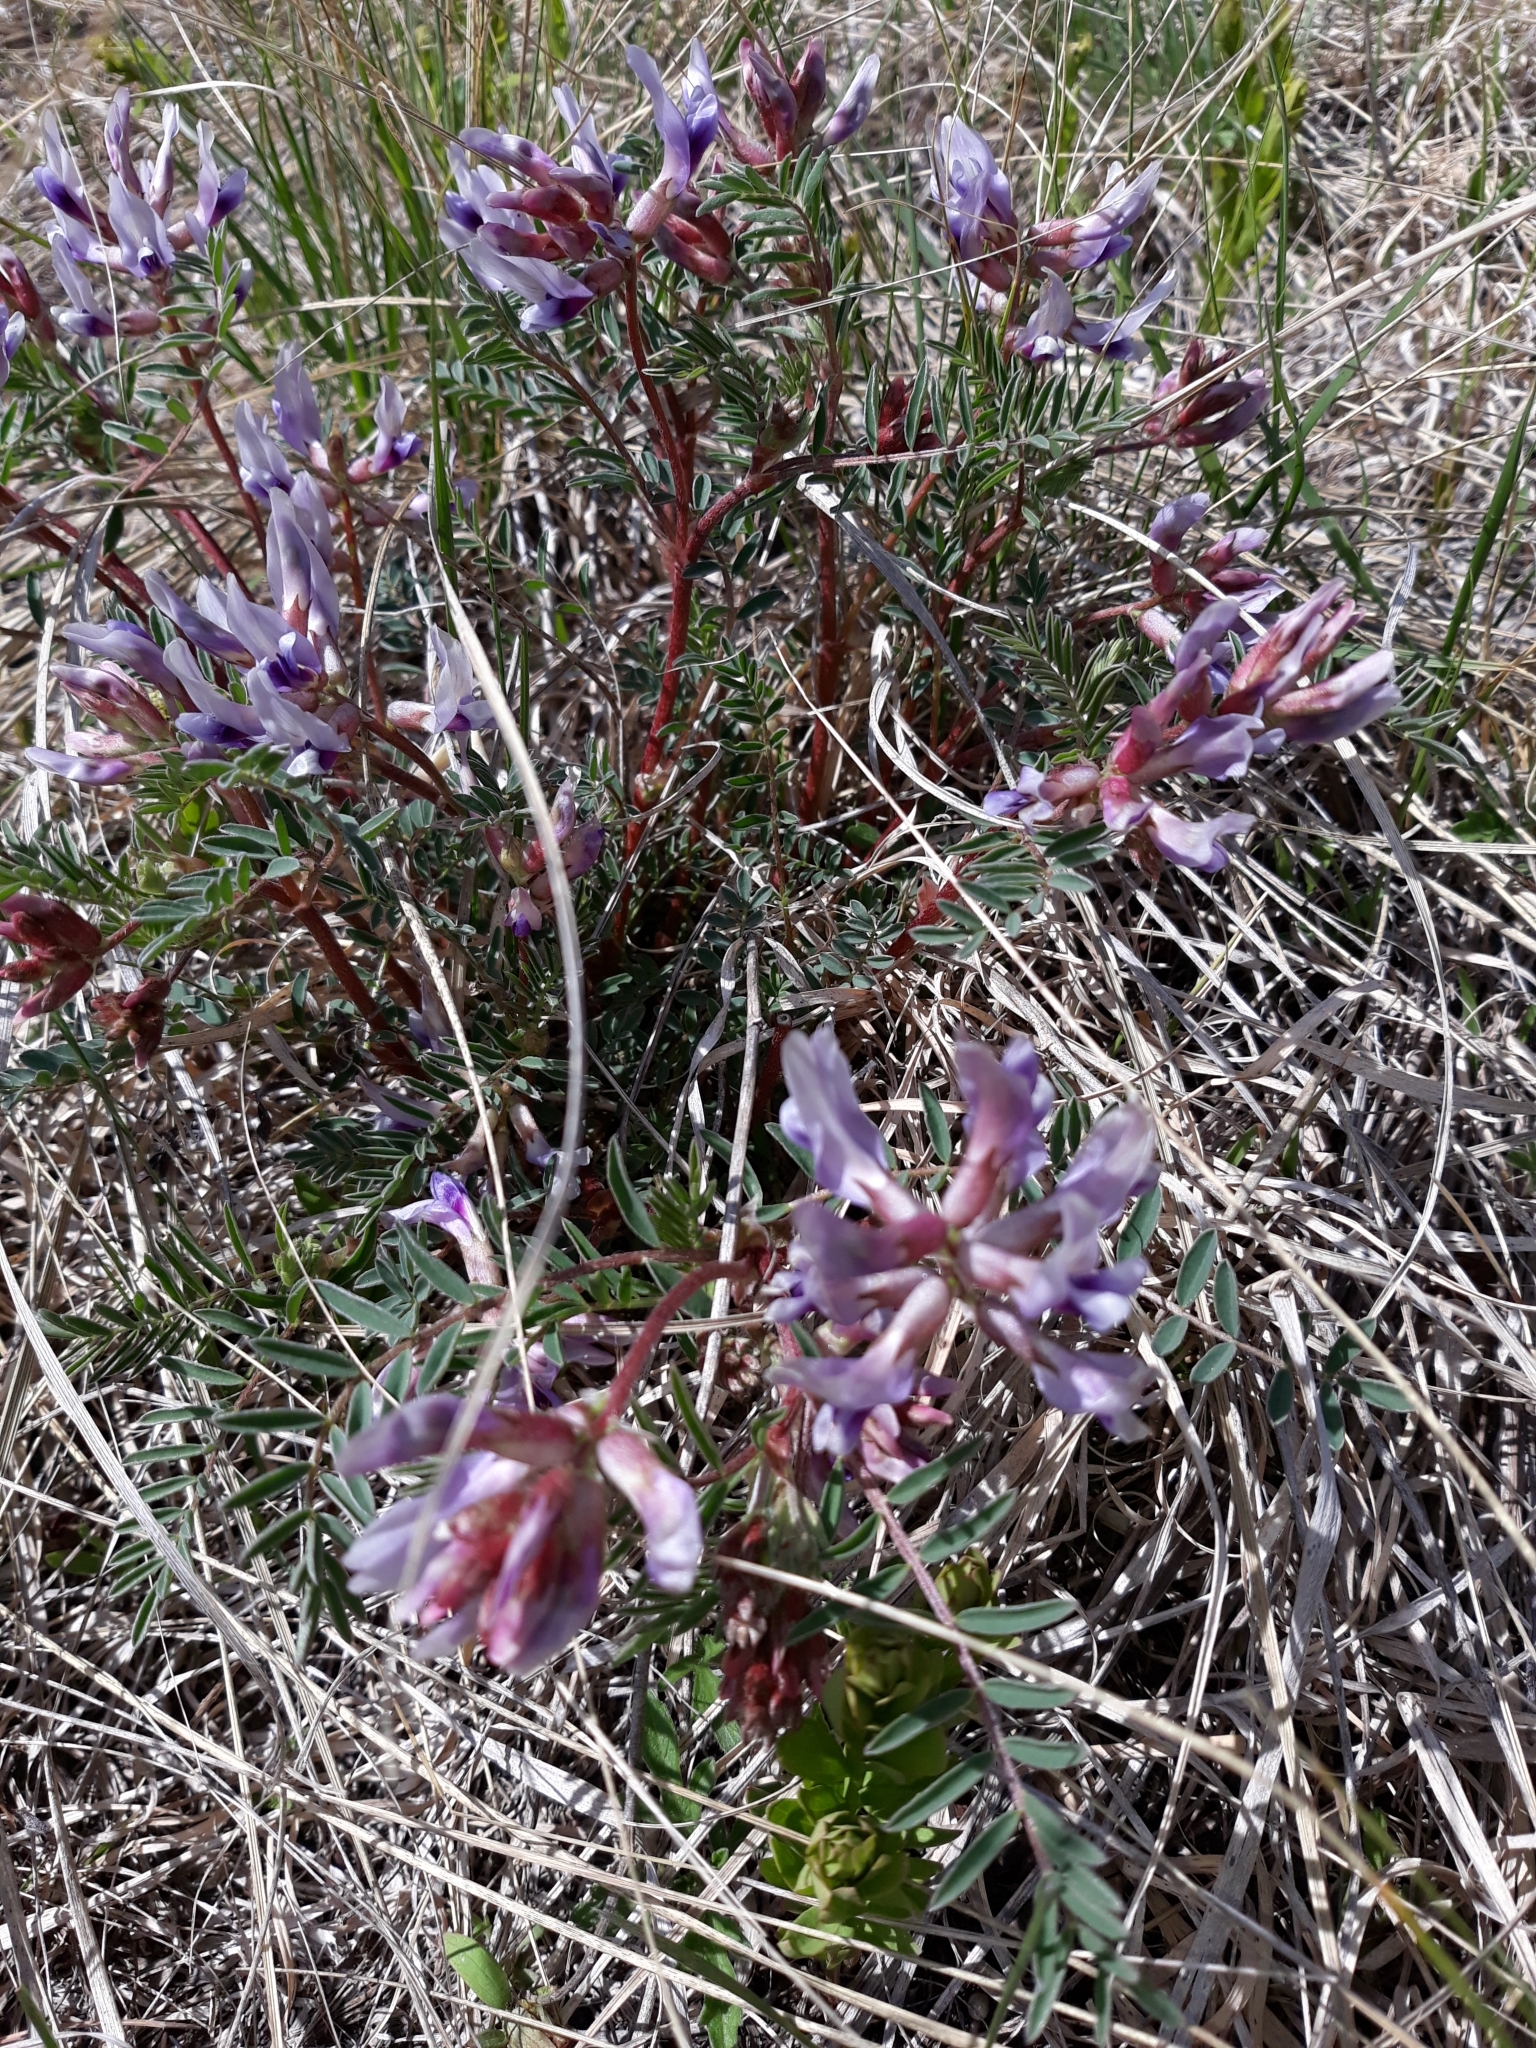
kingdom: Plantae
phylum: Tracheophyta
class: Magnoliopsida
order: Fabales
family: Fabaceae
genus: Astragalus
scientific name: Astragalus crassicarpus
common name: Ground-plum milk-vetch
